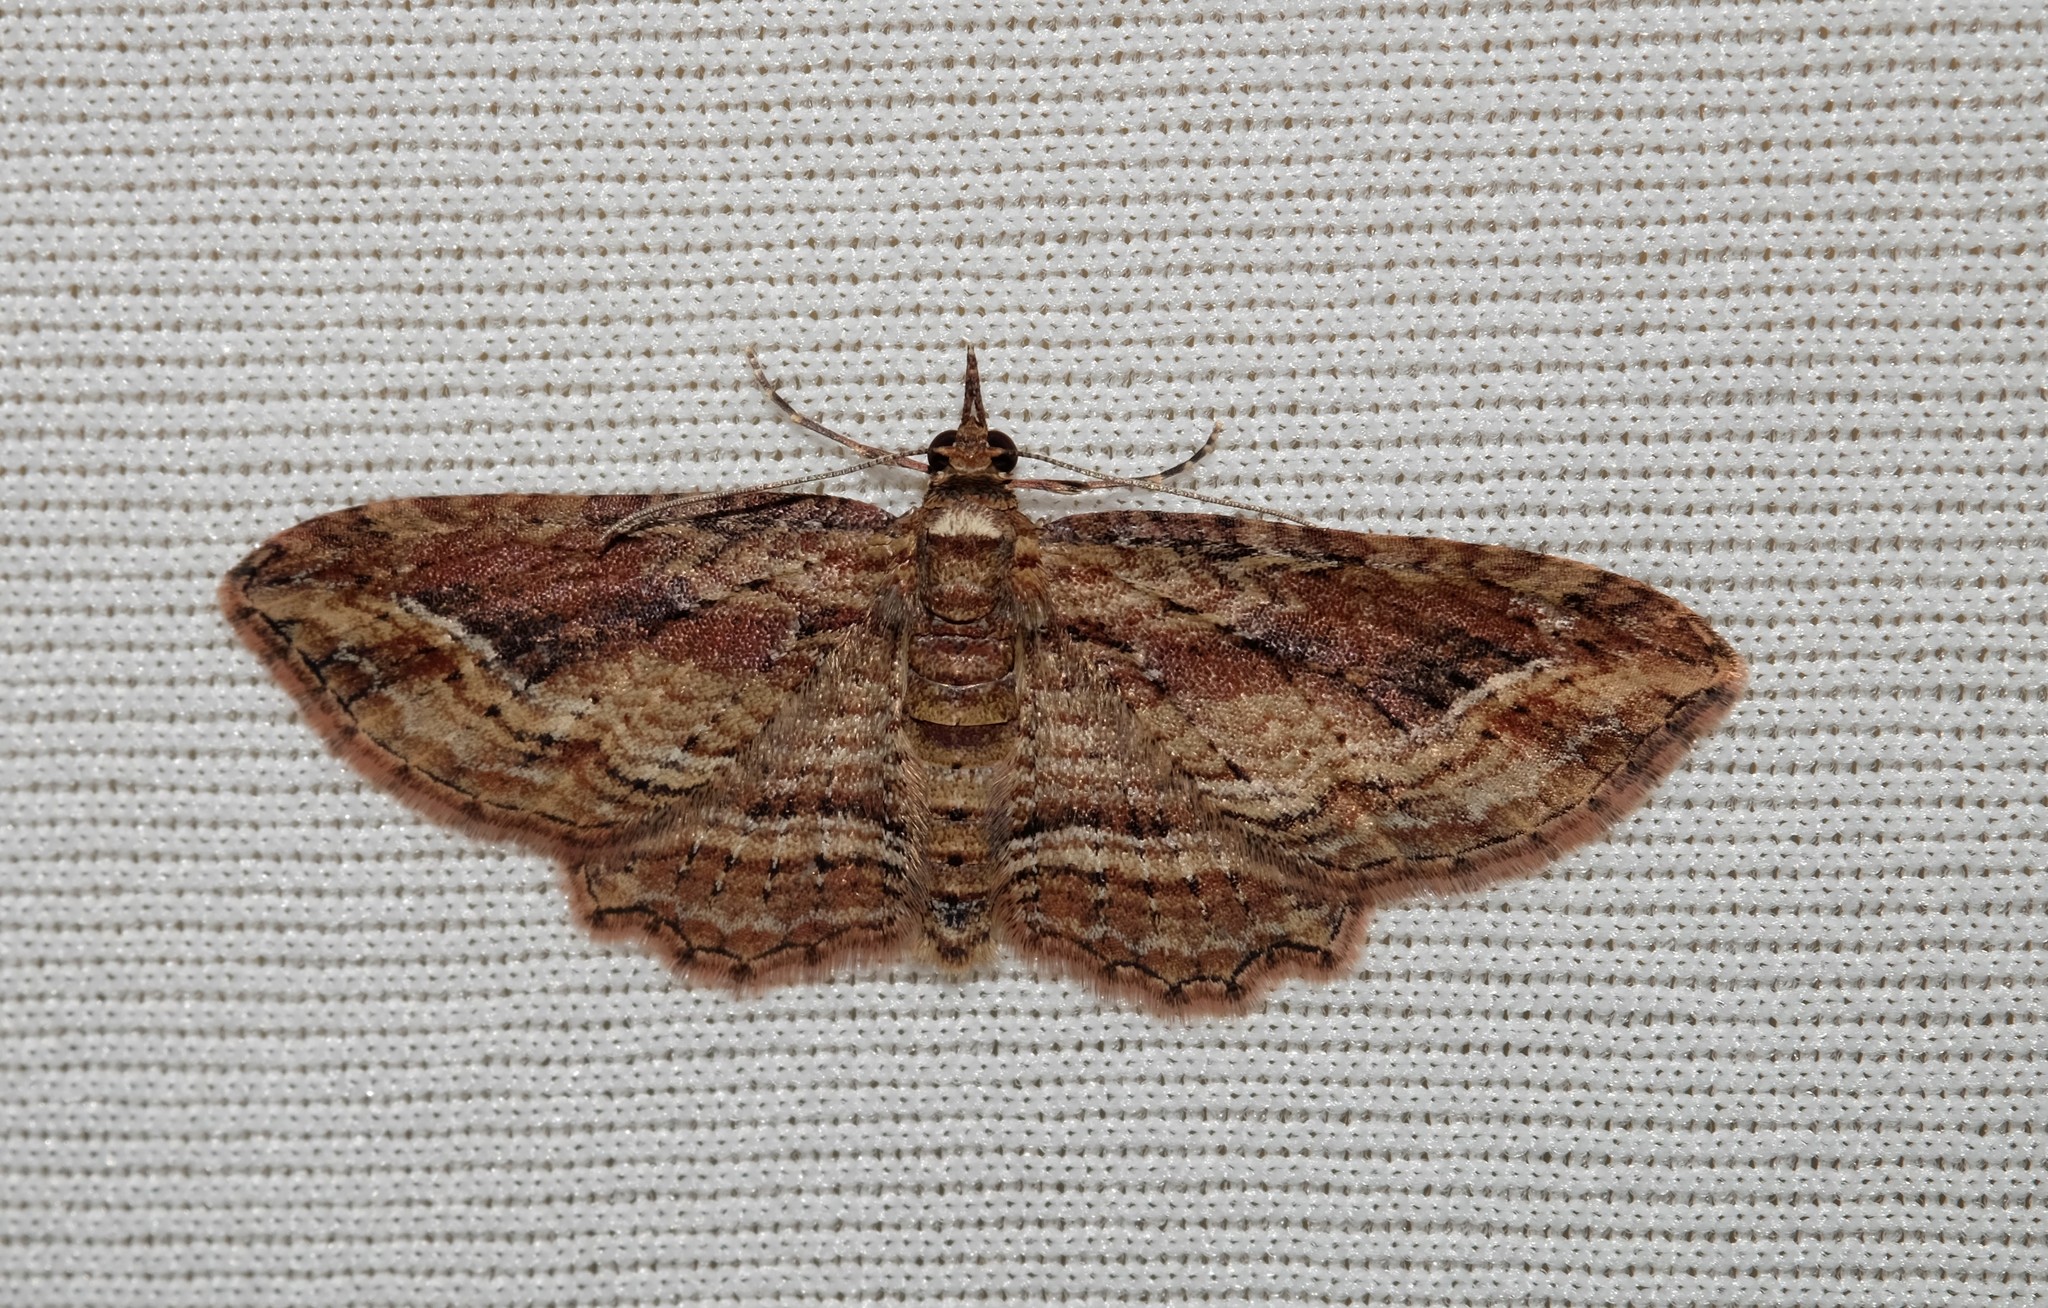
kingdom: Animalia
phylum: Arthropoda
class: Insecta
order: Lepidoptera
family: Geometridae
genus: Chloroclystis
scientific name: Chloroclystis filata
